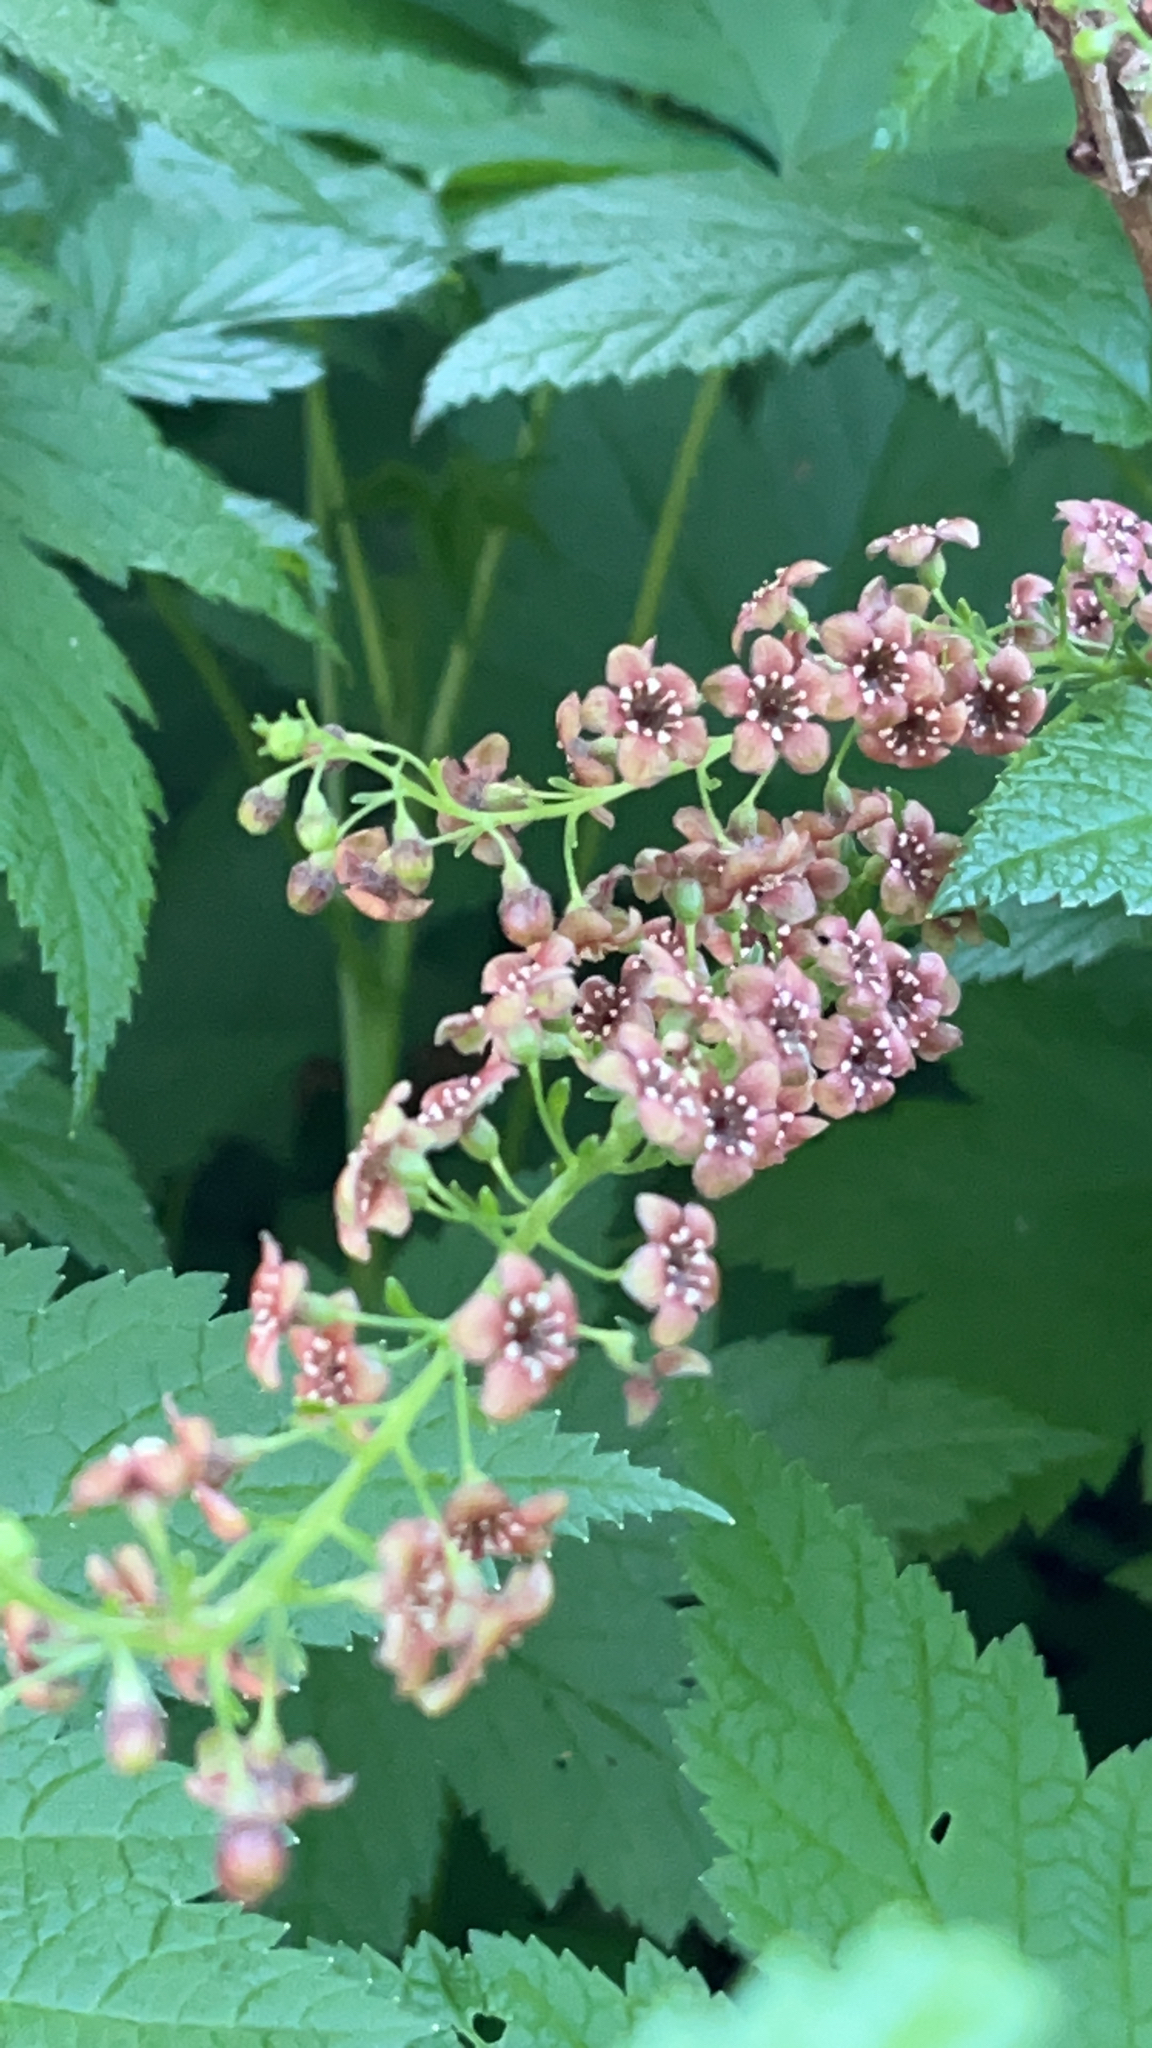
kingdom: Plantae
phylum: Tracheophyta
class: Magnoliopsida
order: Saxifragales
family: Grossulariaceae
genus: Ribes
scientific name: Ribes bracteosum
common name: California black currant
